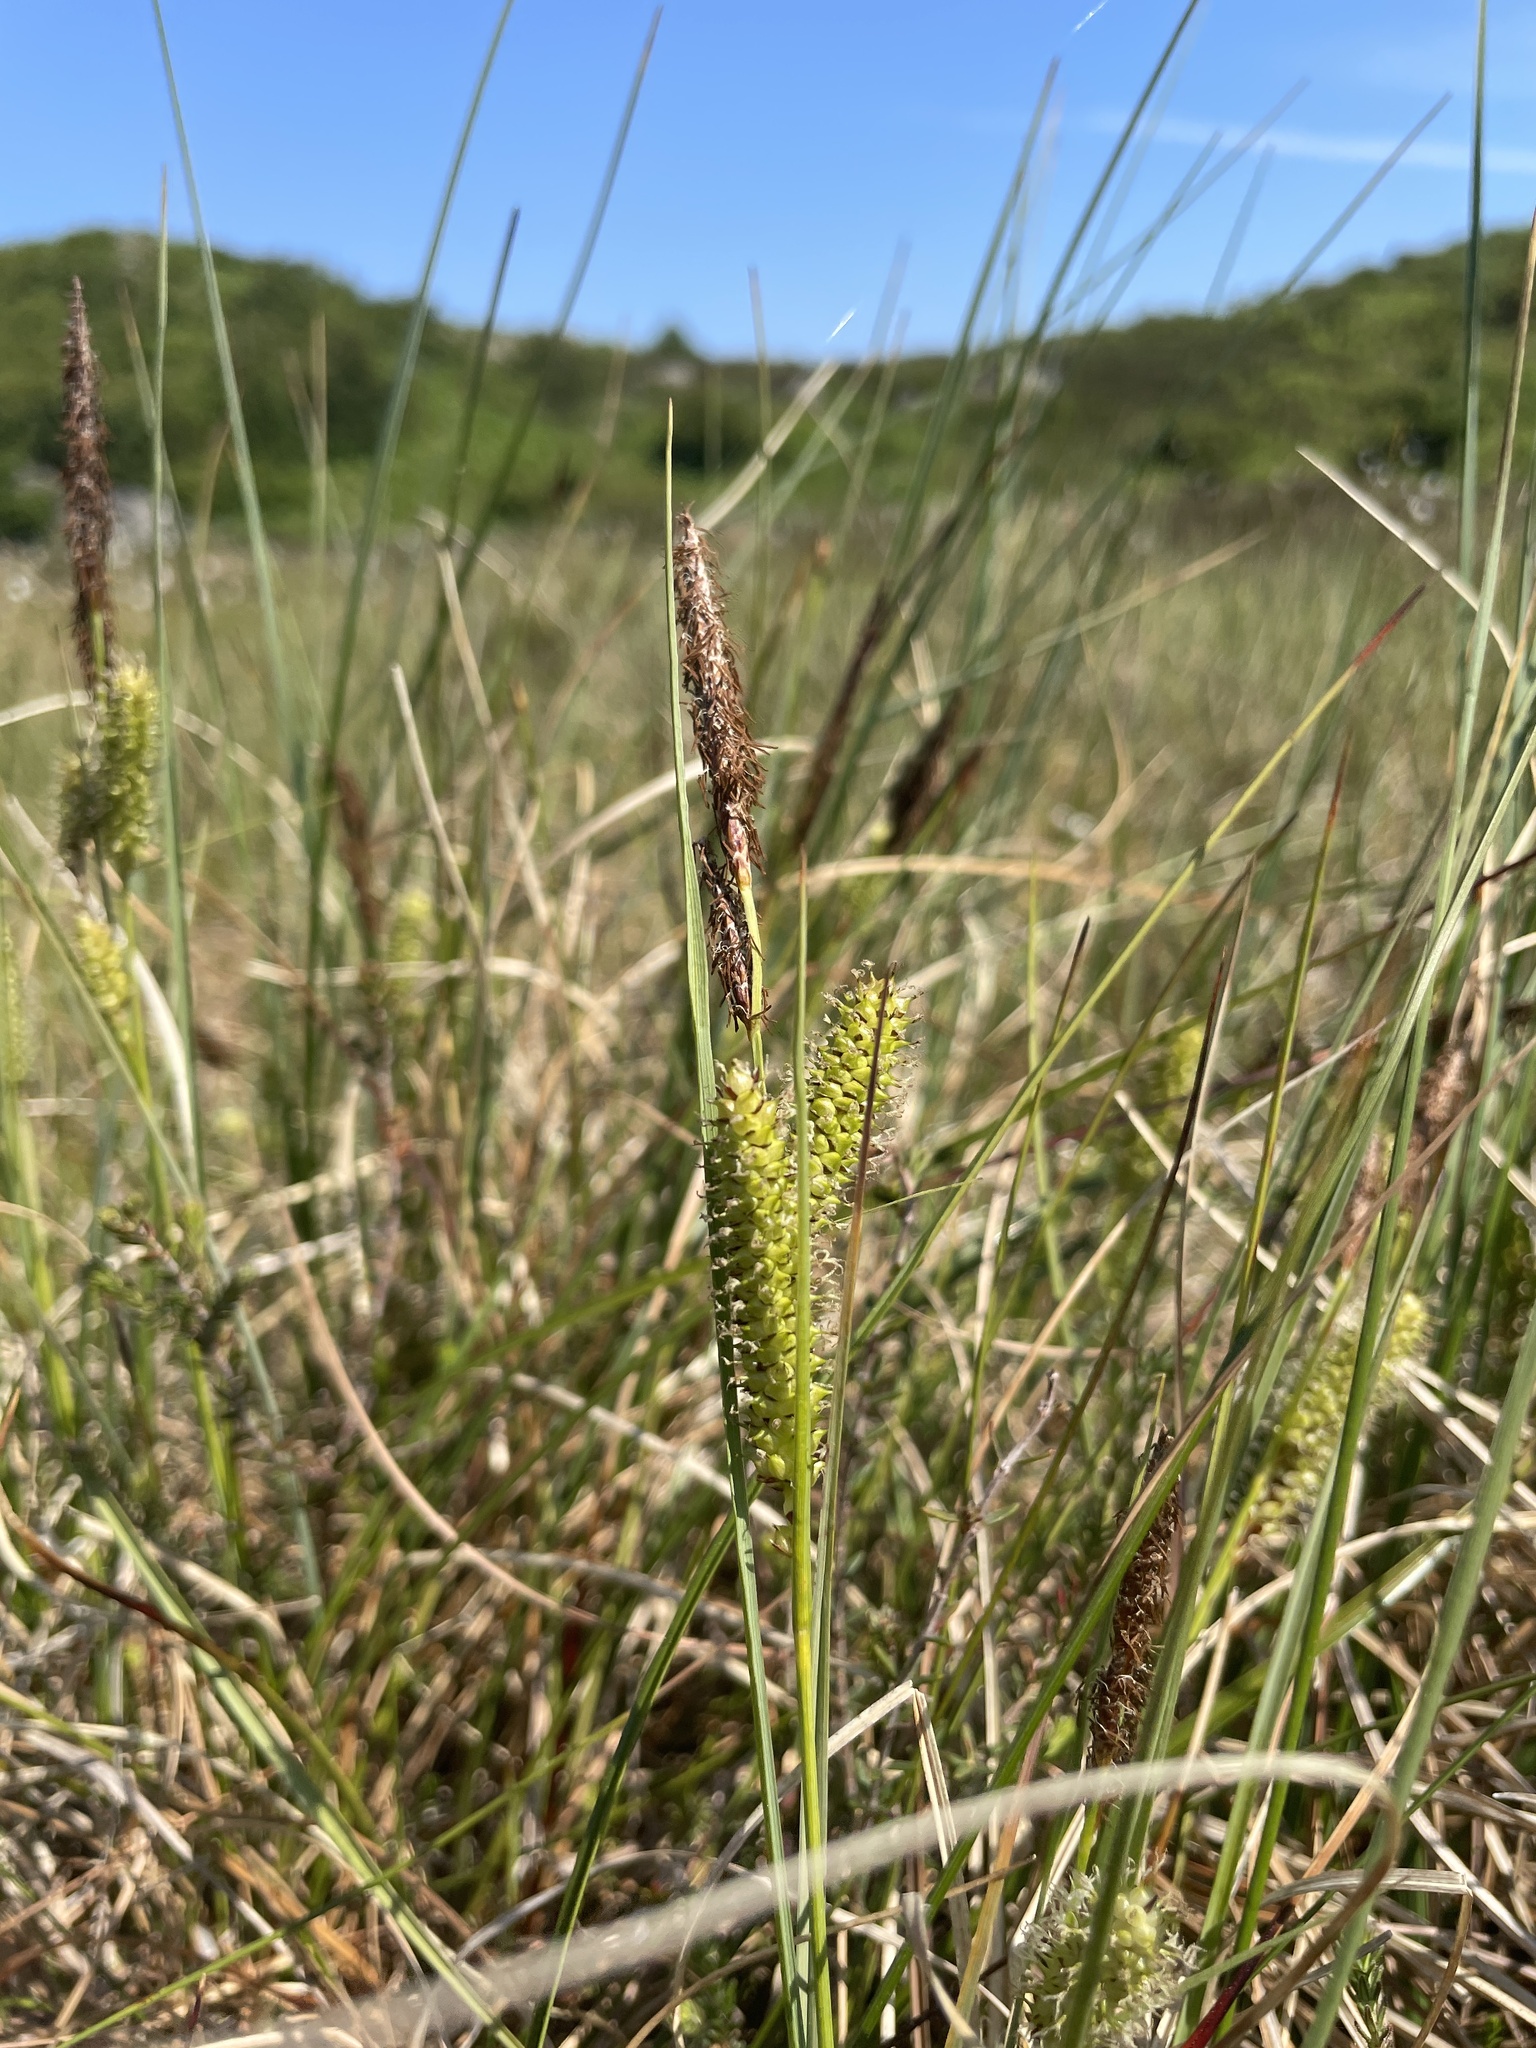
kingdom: Plantae
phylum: Tracheophyta
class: Liliopsida
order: Poales
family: Cyperaceae
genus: Carex
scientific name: Carex rostrata
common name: Bottle sedge
